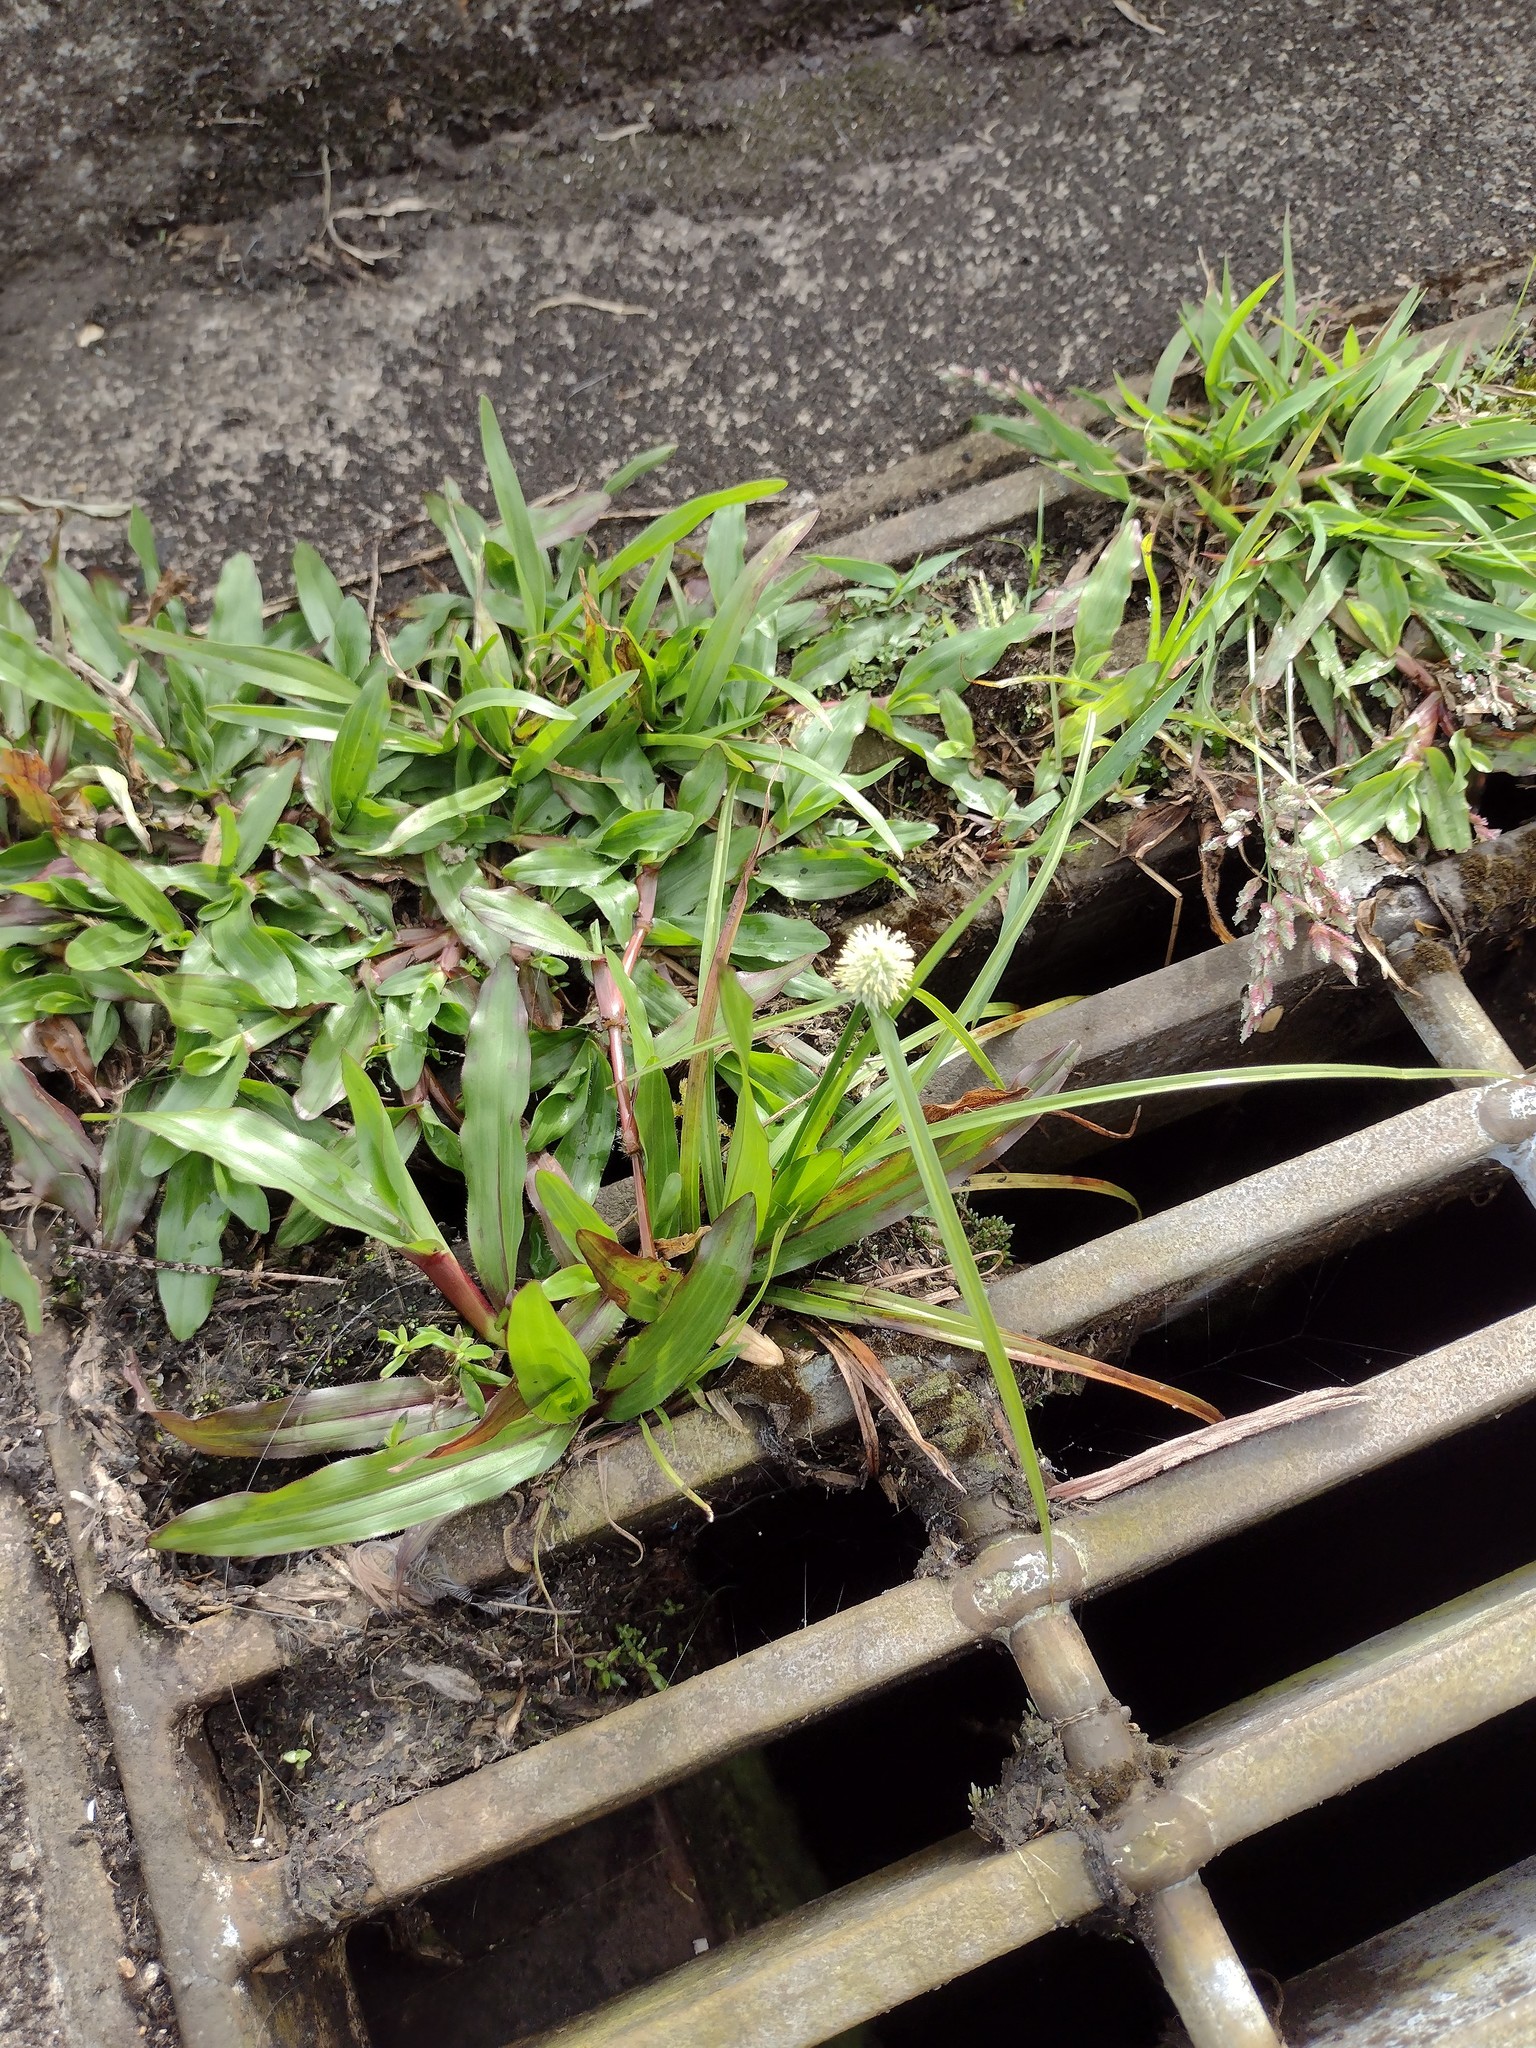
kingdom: Plantae
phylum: Tracheophyta
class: Liliopsida
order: Poales
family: Cyperaceae
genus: Cyperus
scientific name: Cyperus mindorensis
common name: Flatsedge
